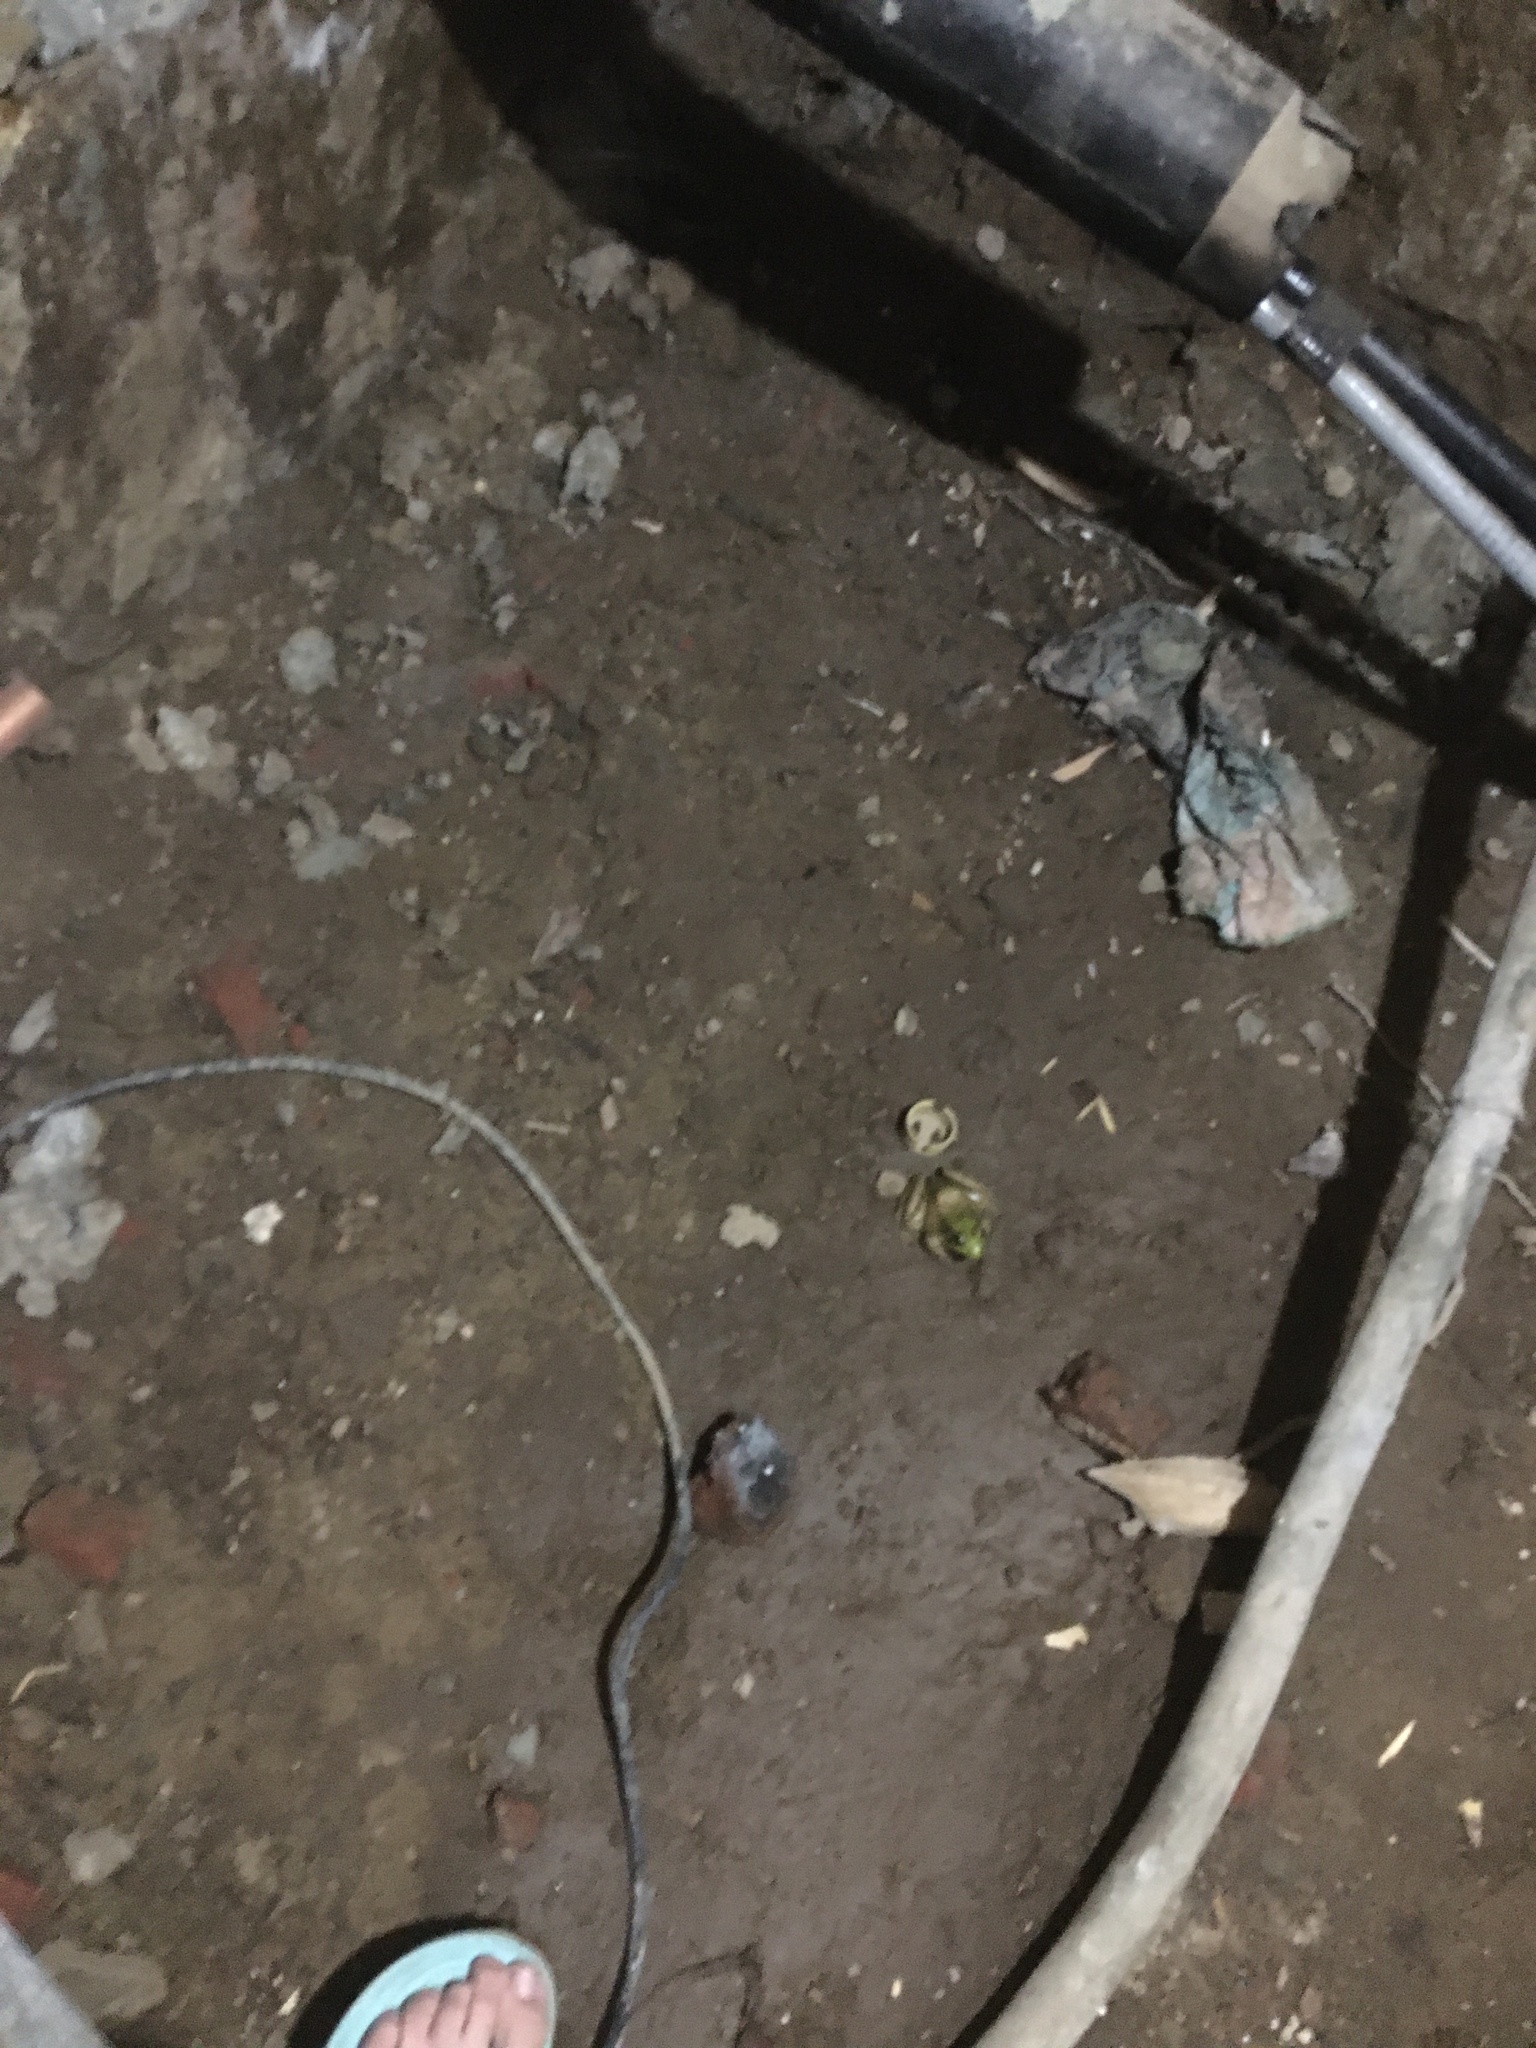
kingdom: Animalia
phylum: Chordata
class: Amphibia
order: Anura
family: Ranidae
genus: Lithobates
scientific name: Lithobates clamitans
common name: Green frog
